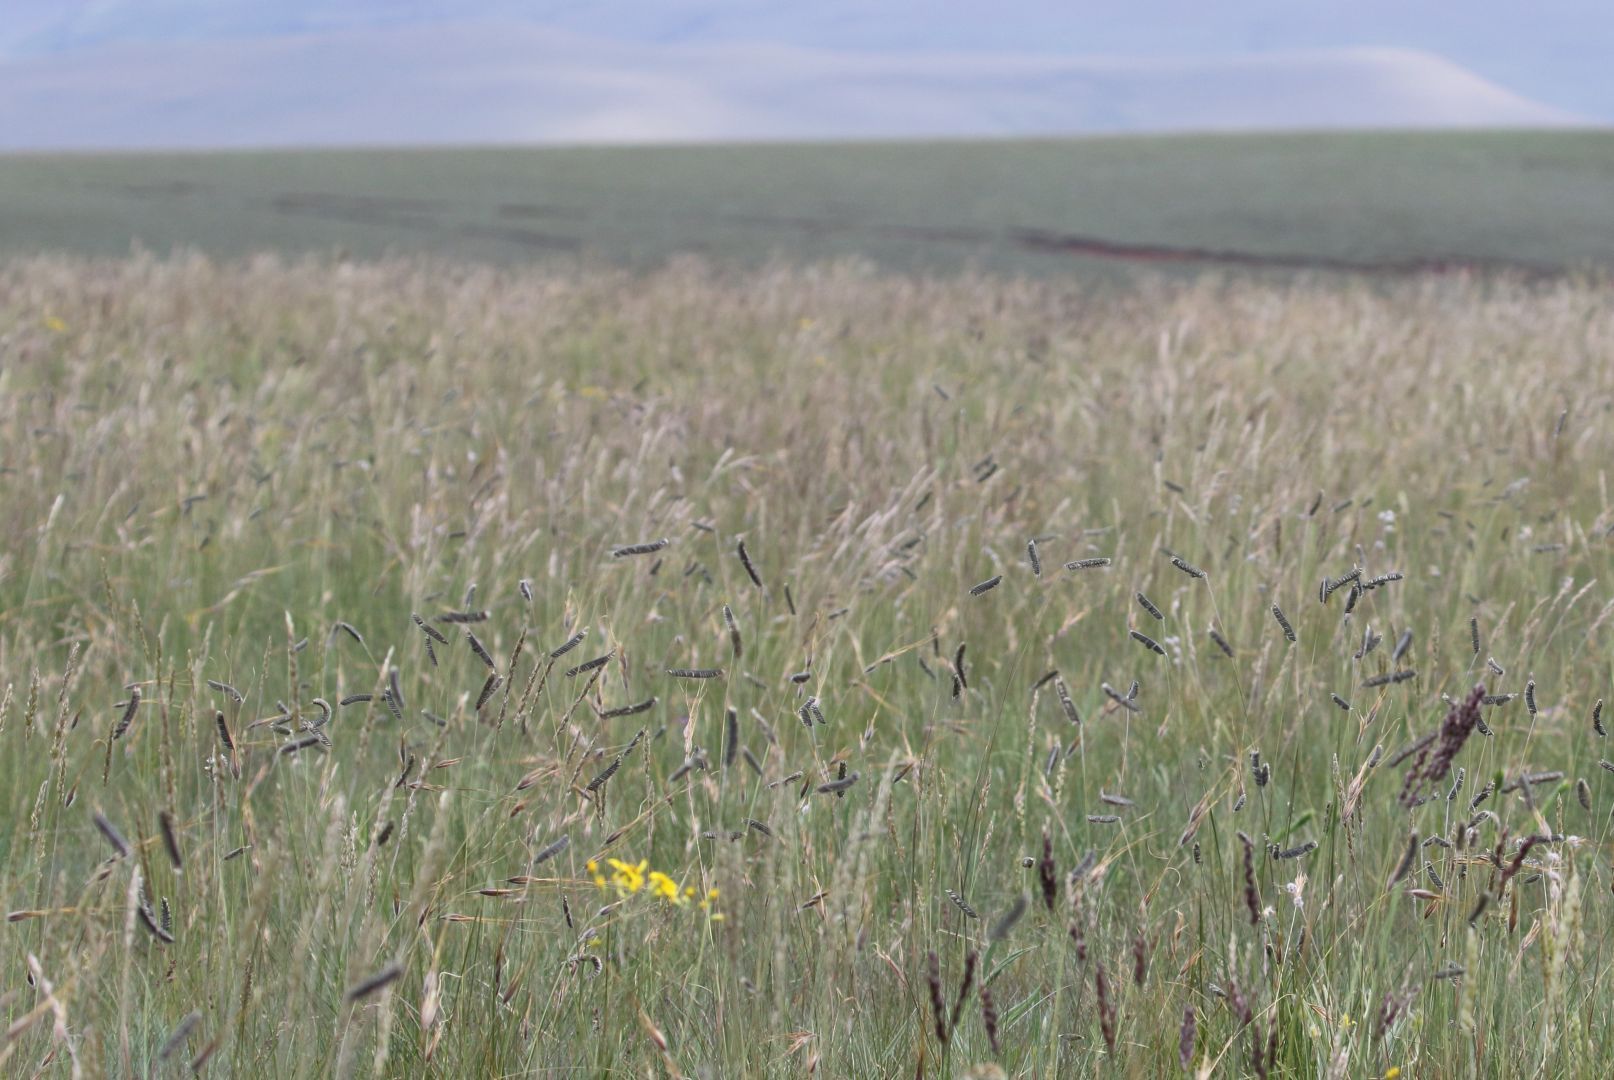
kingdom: Plantae
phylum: Tracheophyta
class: Liliopsida
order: Poales
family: Poaceae
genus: Harpochloa
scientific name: Harpochloa falx
